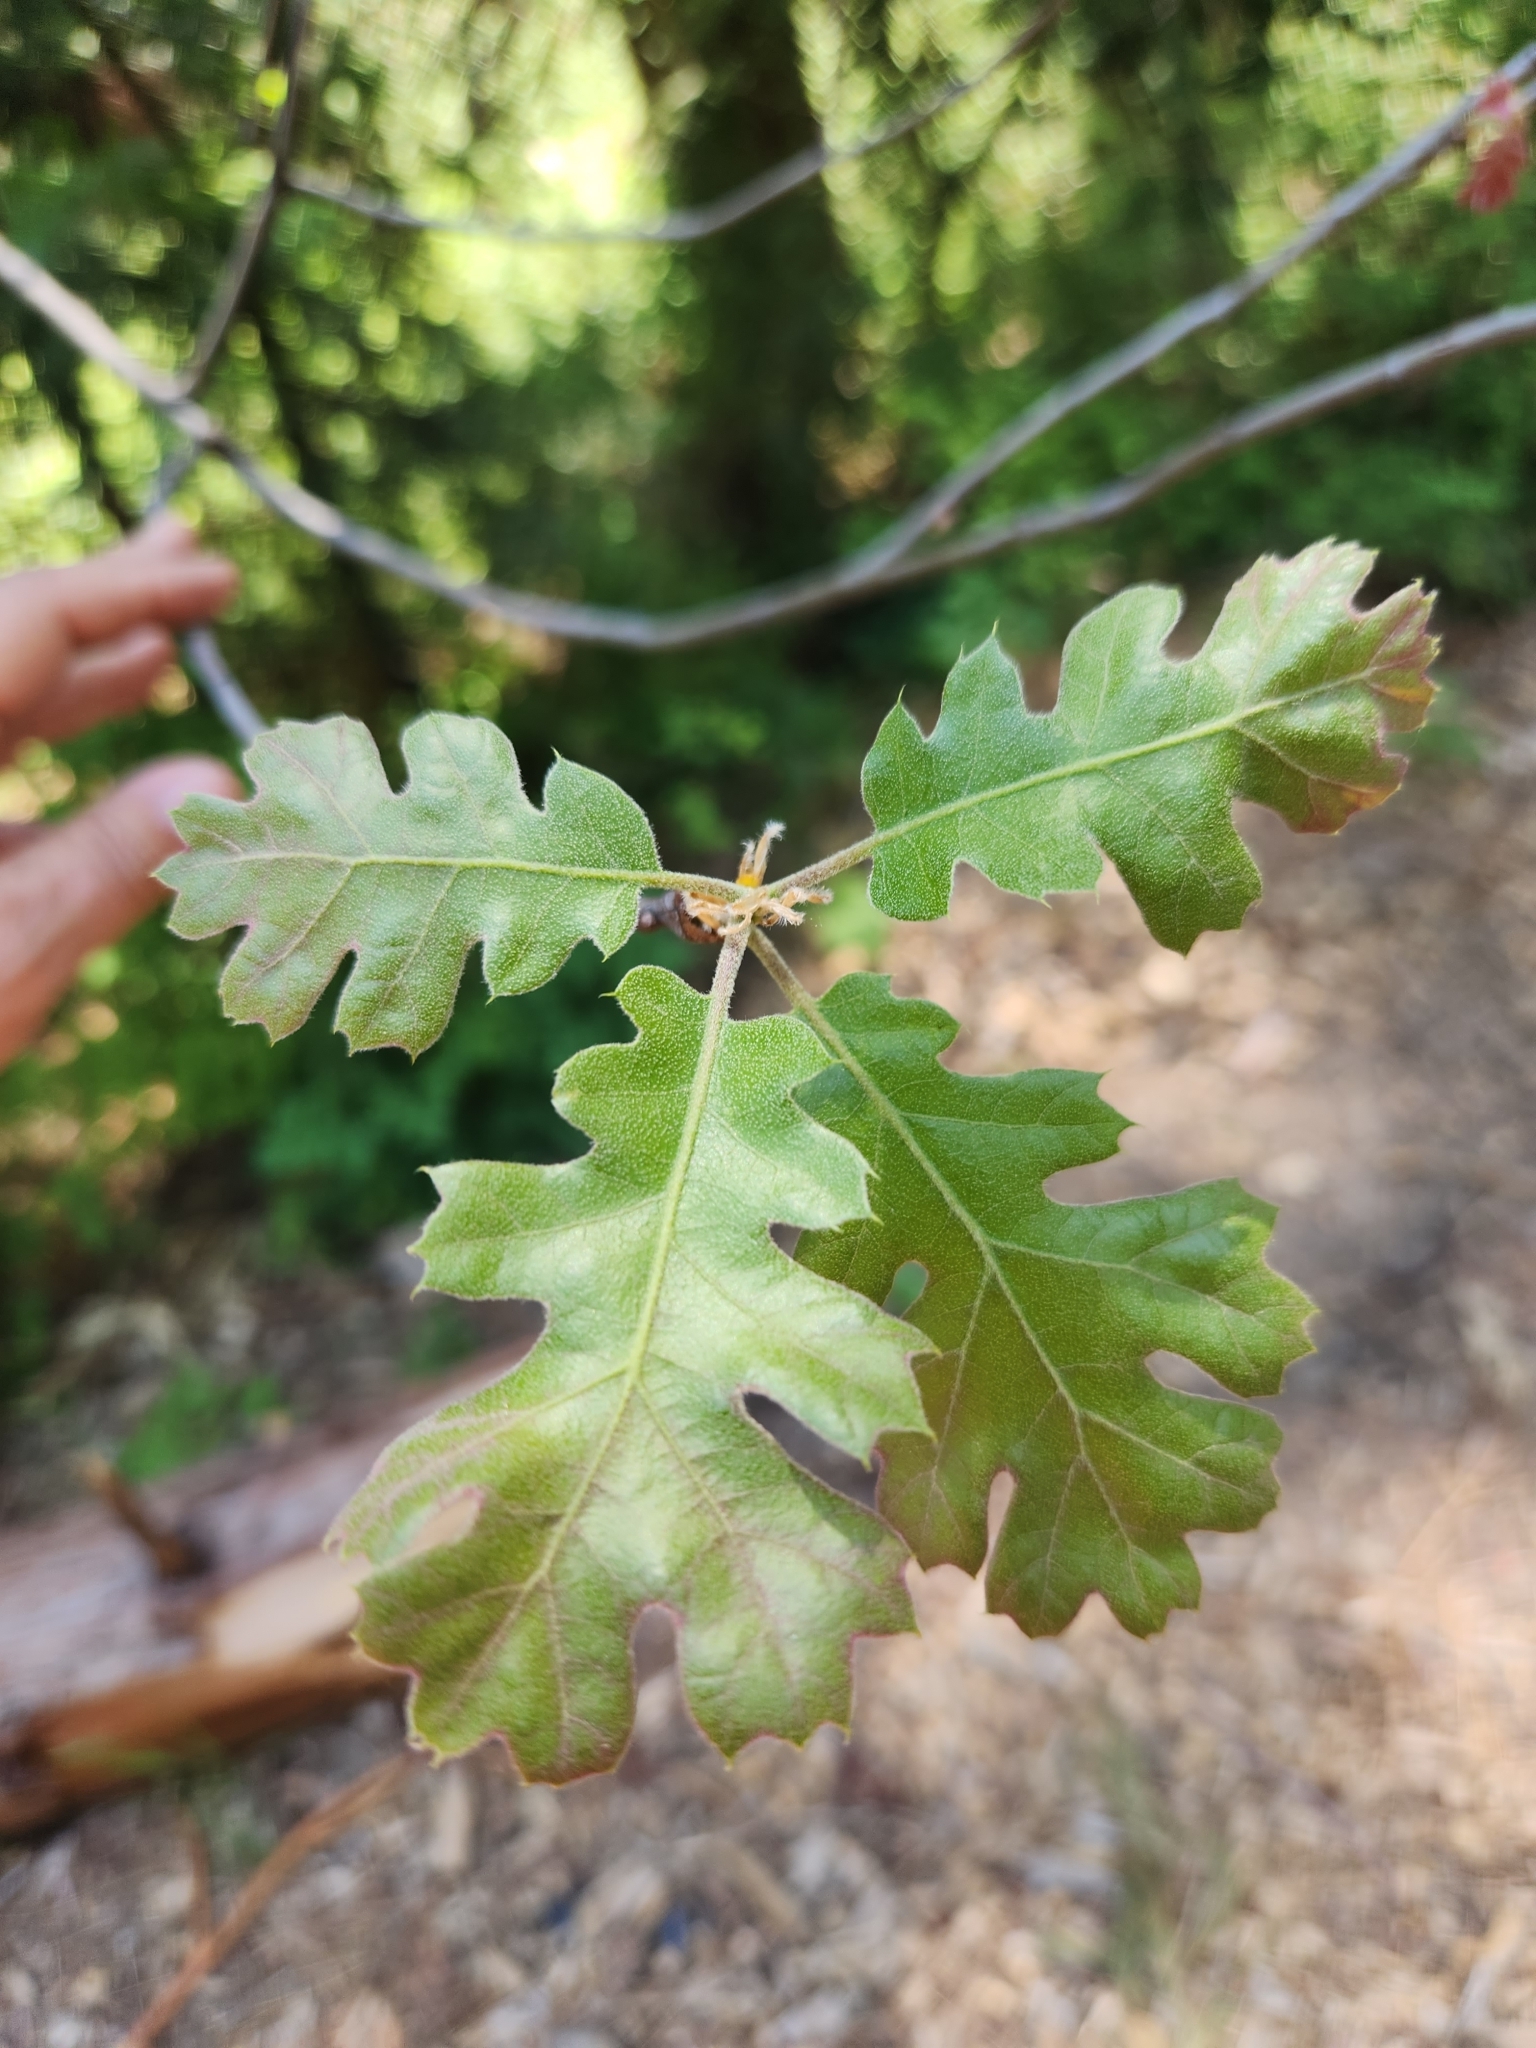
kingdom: Plantae
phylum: Tracheophyta
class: Magnoliopsida
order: Fagales
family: Fagaceae
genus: Quercus
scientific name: Quercus kelloggii
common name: California black oak
